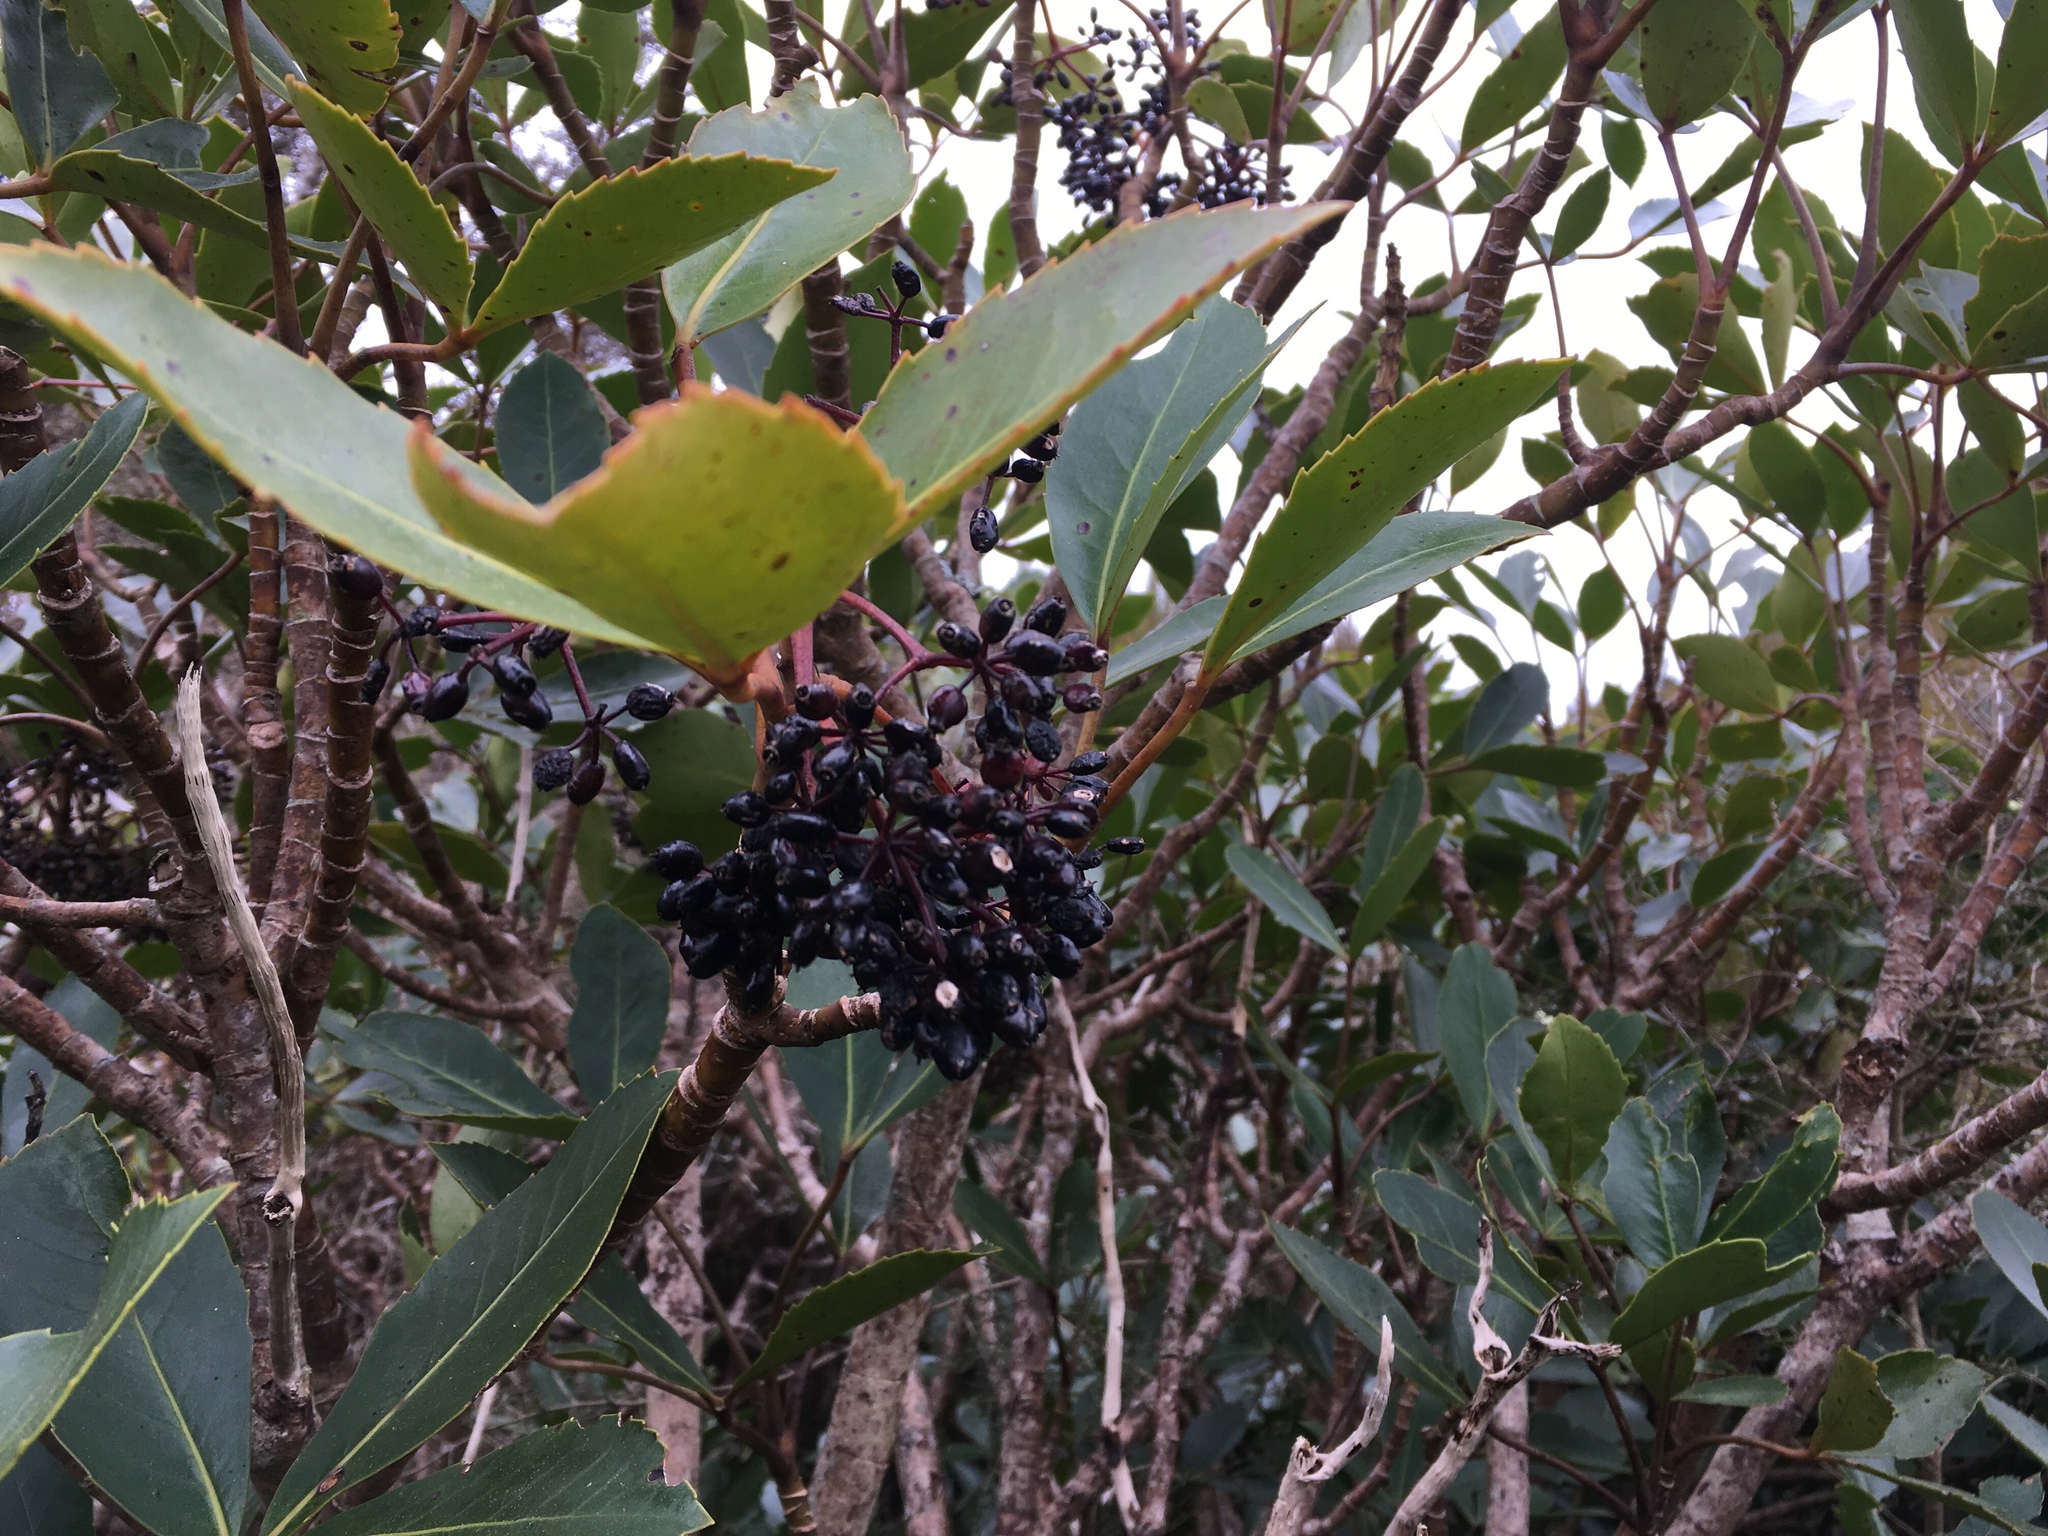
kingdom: Plantae
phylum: Tracheophyta
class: Magnoliopsida
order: Apiales
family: Araliaceae
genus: Neopanax
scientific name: Neopanax colensoi
